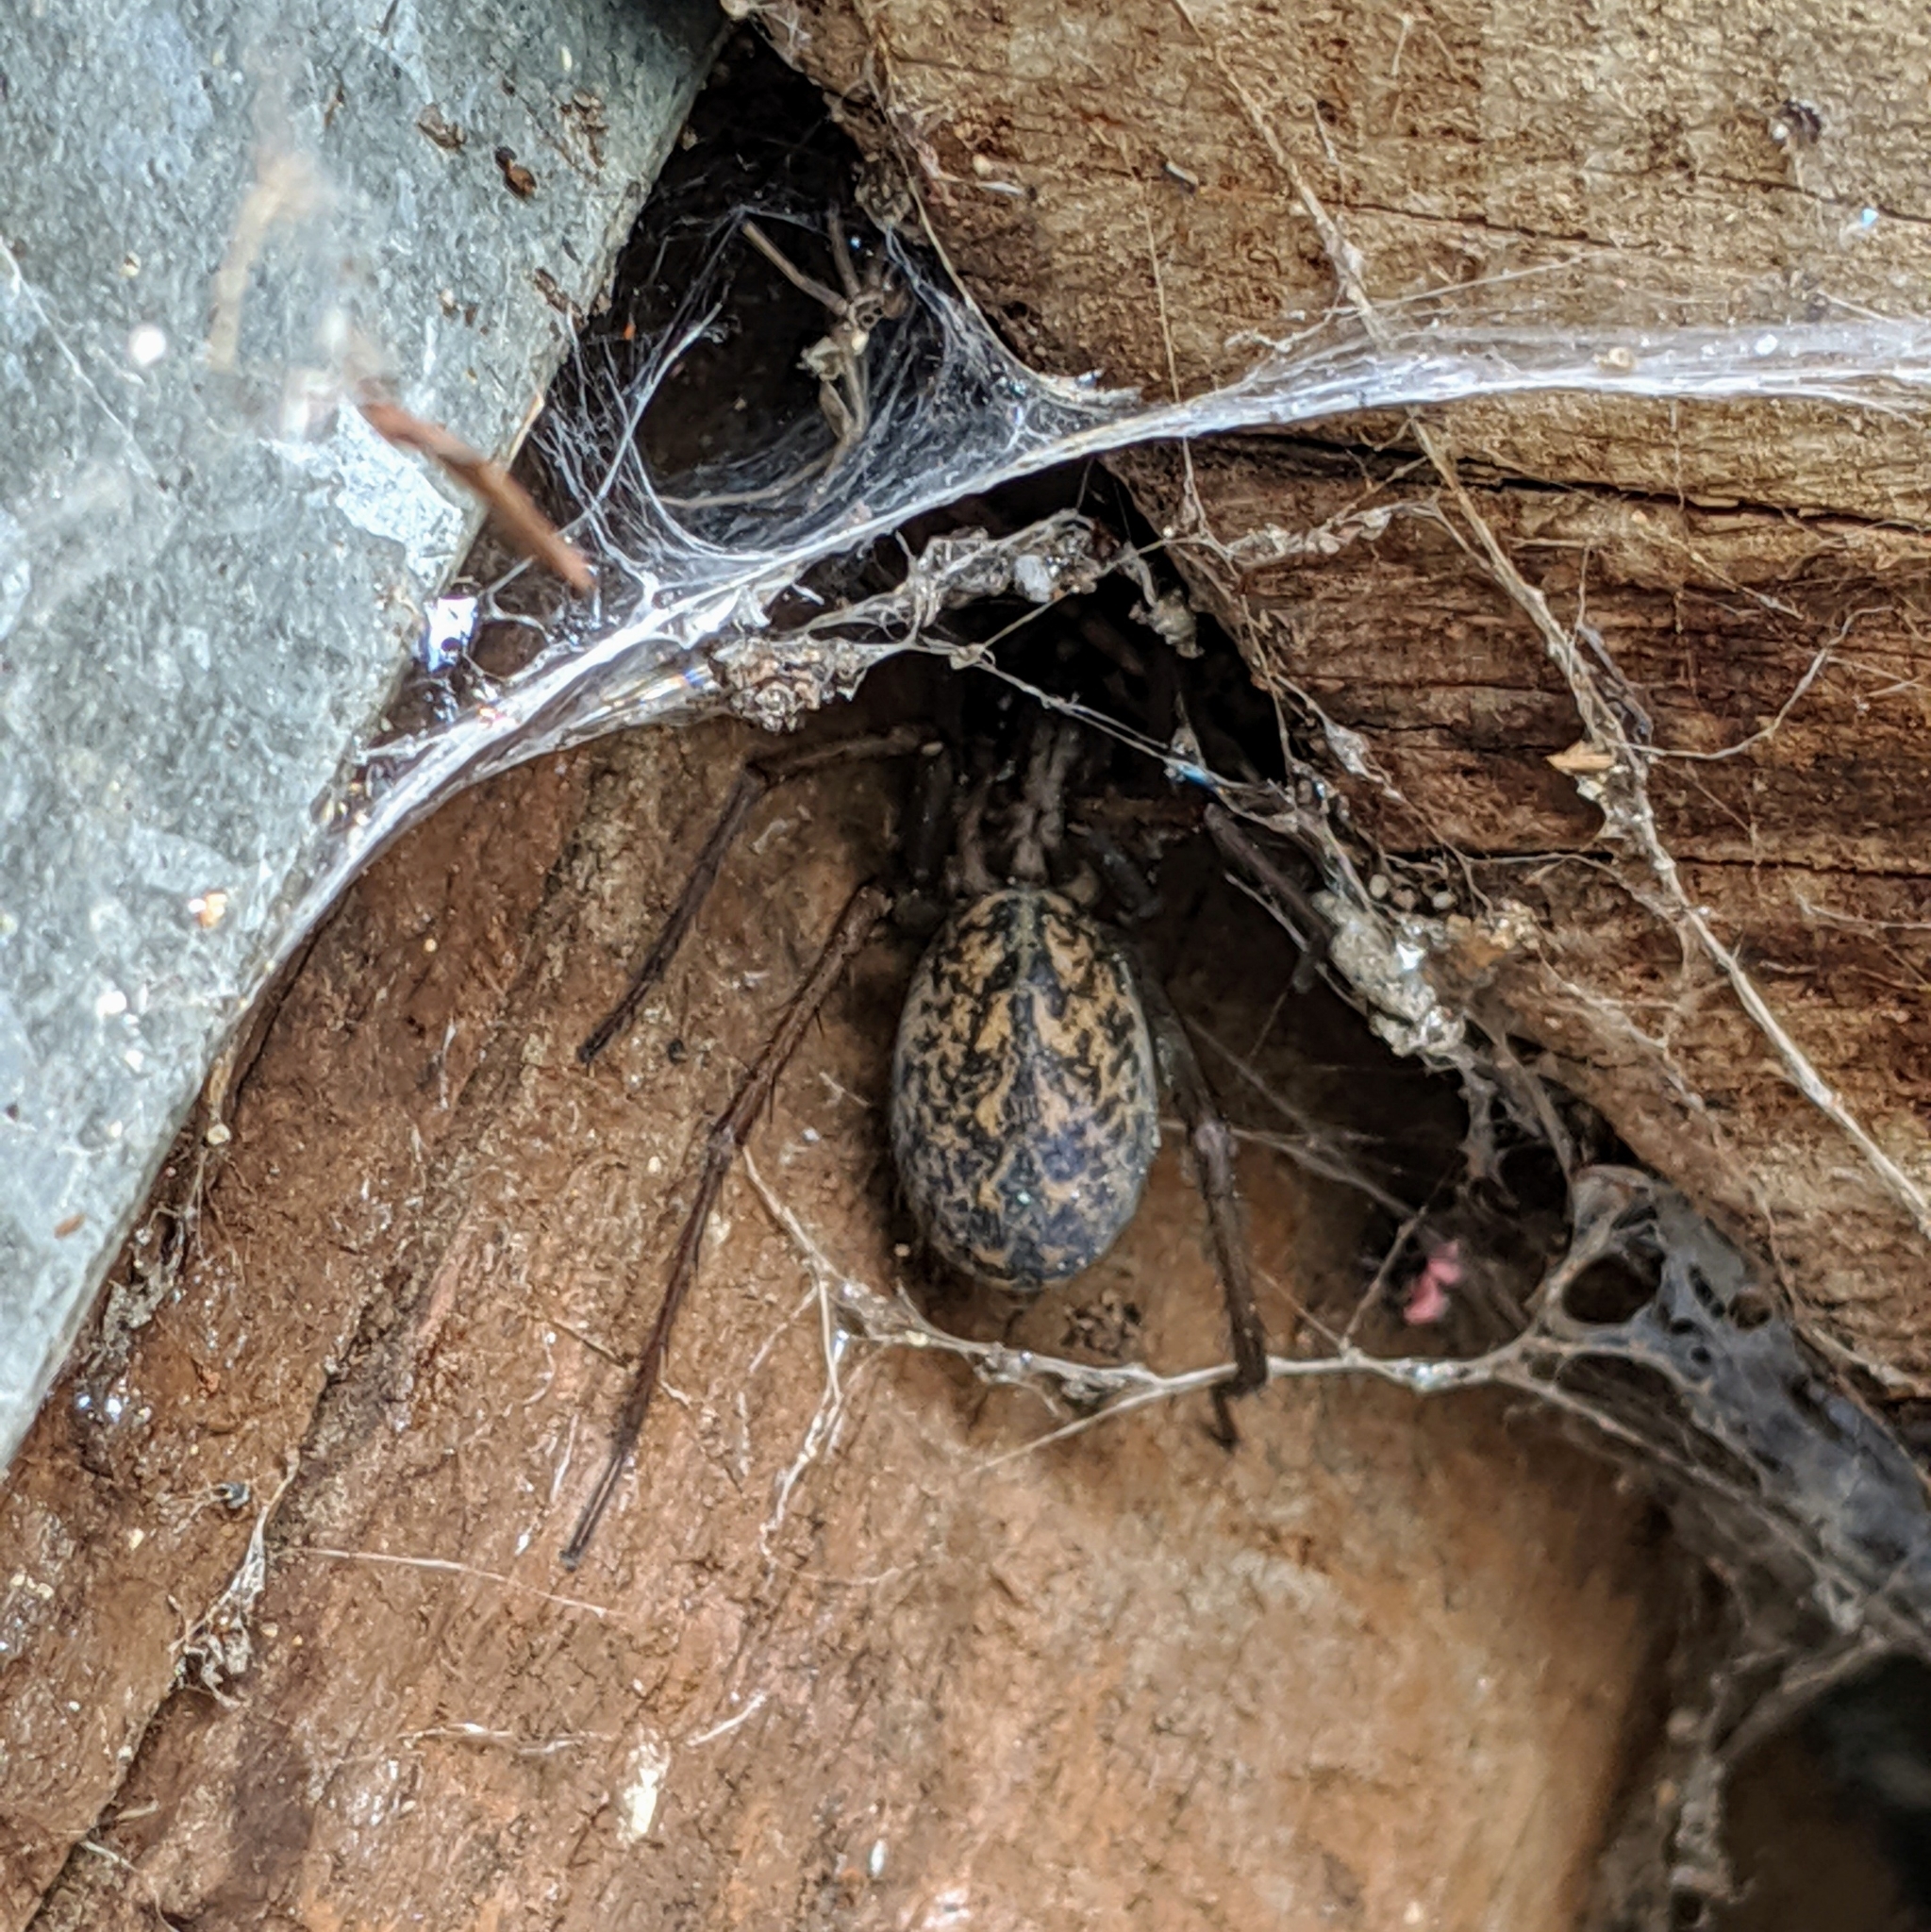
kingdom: Animalia
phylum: Arthropoda
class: Arachnida
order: Araneae
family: Agelenidae
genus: Eratigena
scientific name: Eratigena atrica
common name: Giant house spider
